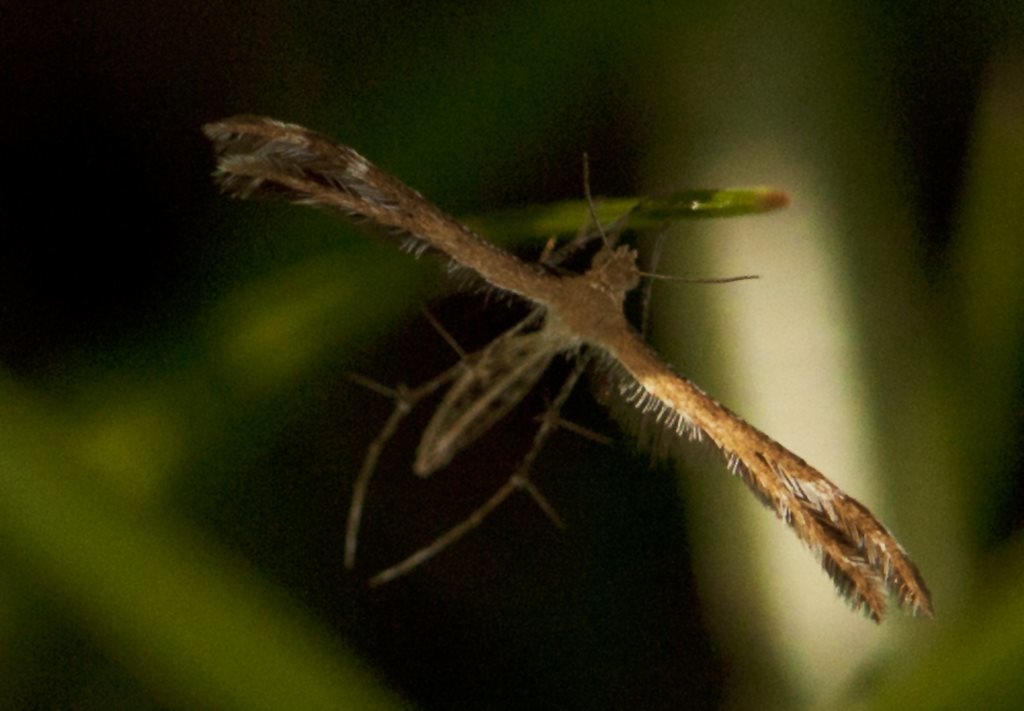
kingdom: Animalia
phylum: Arthropoda
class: Insecta
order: Lepidoptera
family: Pterophoridae
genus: Megalorhipida
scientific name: Megalorhipida leucodactylus
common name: Plume moth
